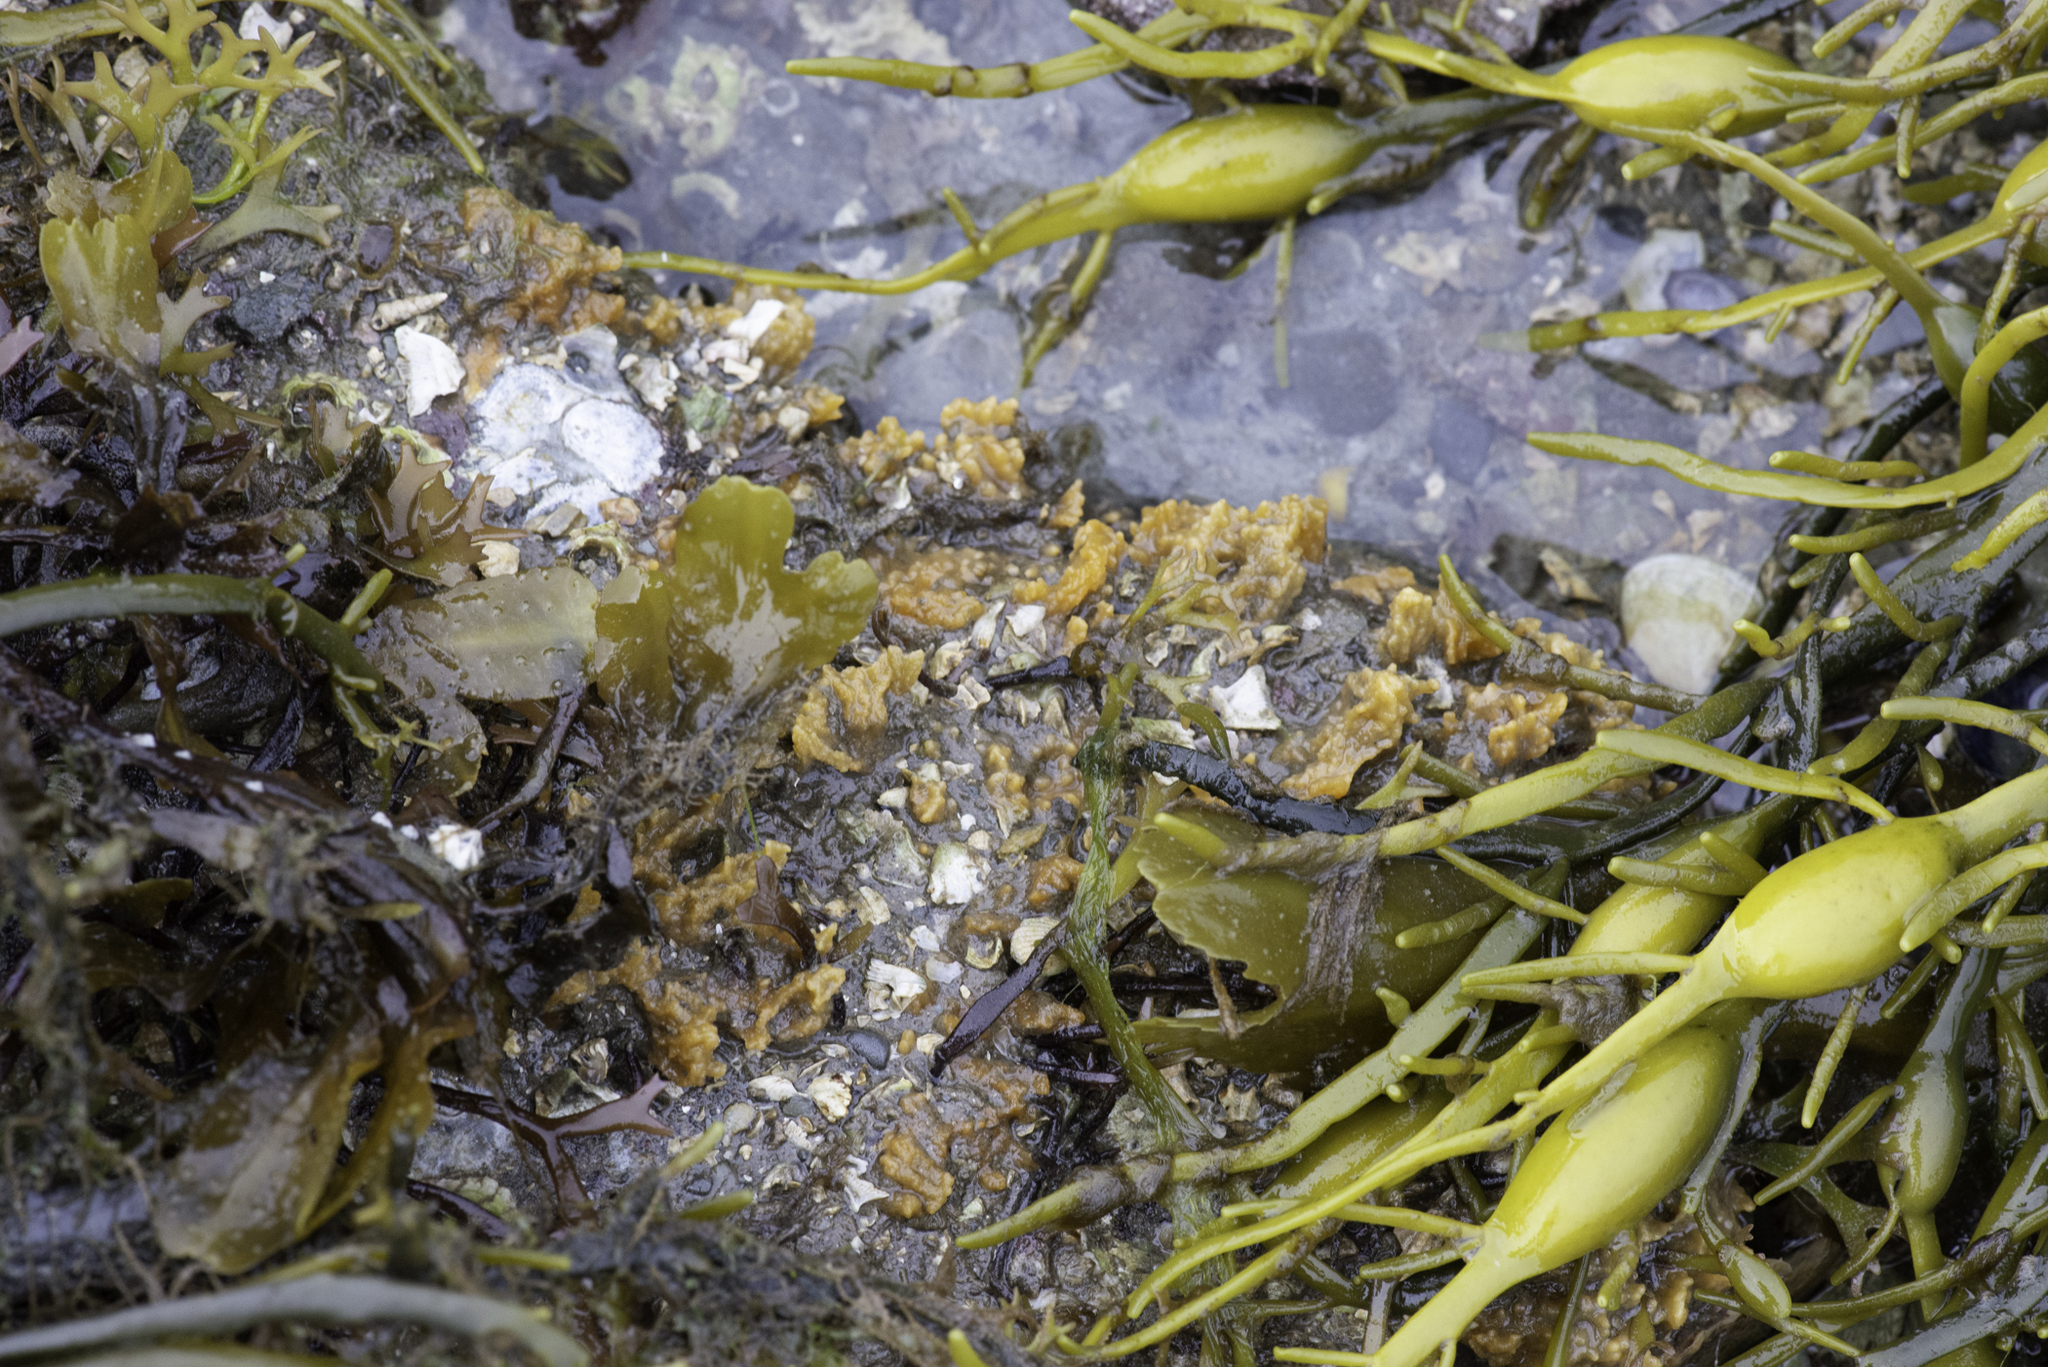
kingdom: Animalia
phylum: Porifera
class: Demospongiae
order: Suberitida
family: Halichondriidae
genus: Hymeniacidon
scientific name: Hymeniacidon perlevis
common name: Crumb-of-bread sponge
